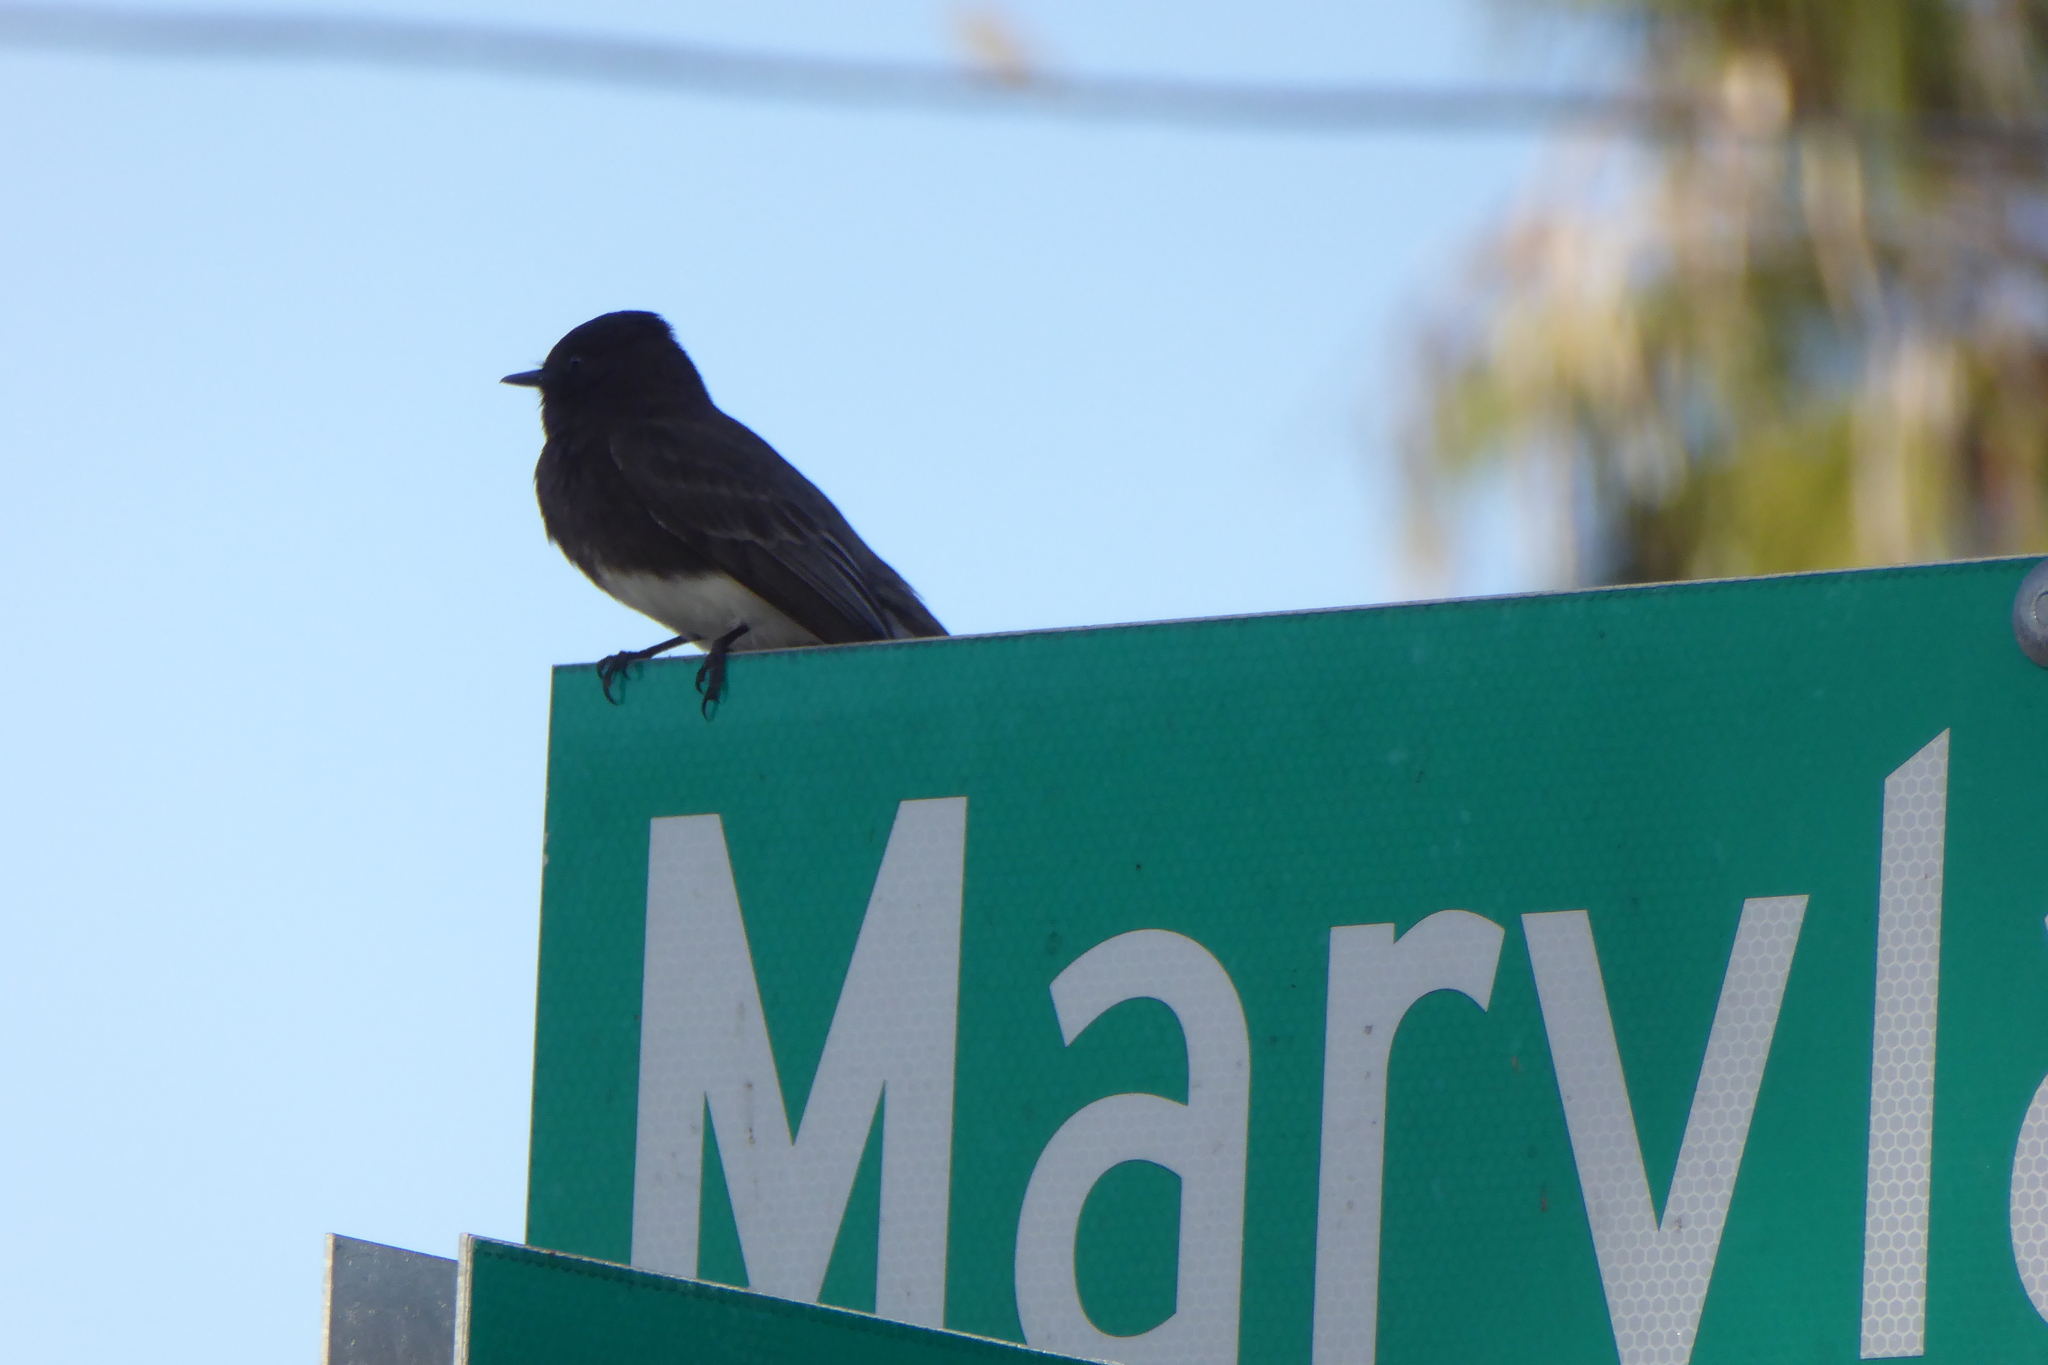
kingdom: Animalia
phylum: Chordata
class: Aves
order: Passeriformes
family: Tyrannidae
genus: Sayornis
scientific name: Sayornis nigricans
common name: Black phoebe
